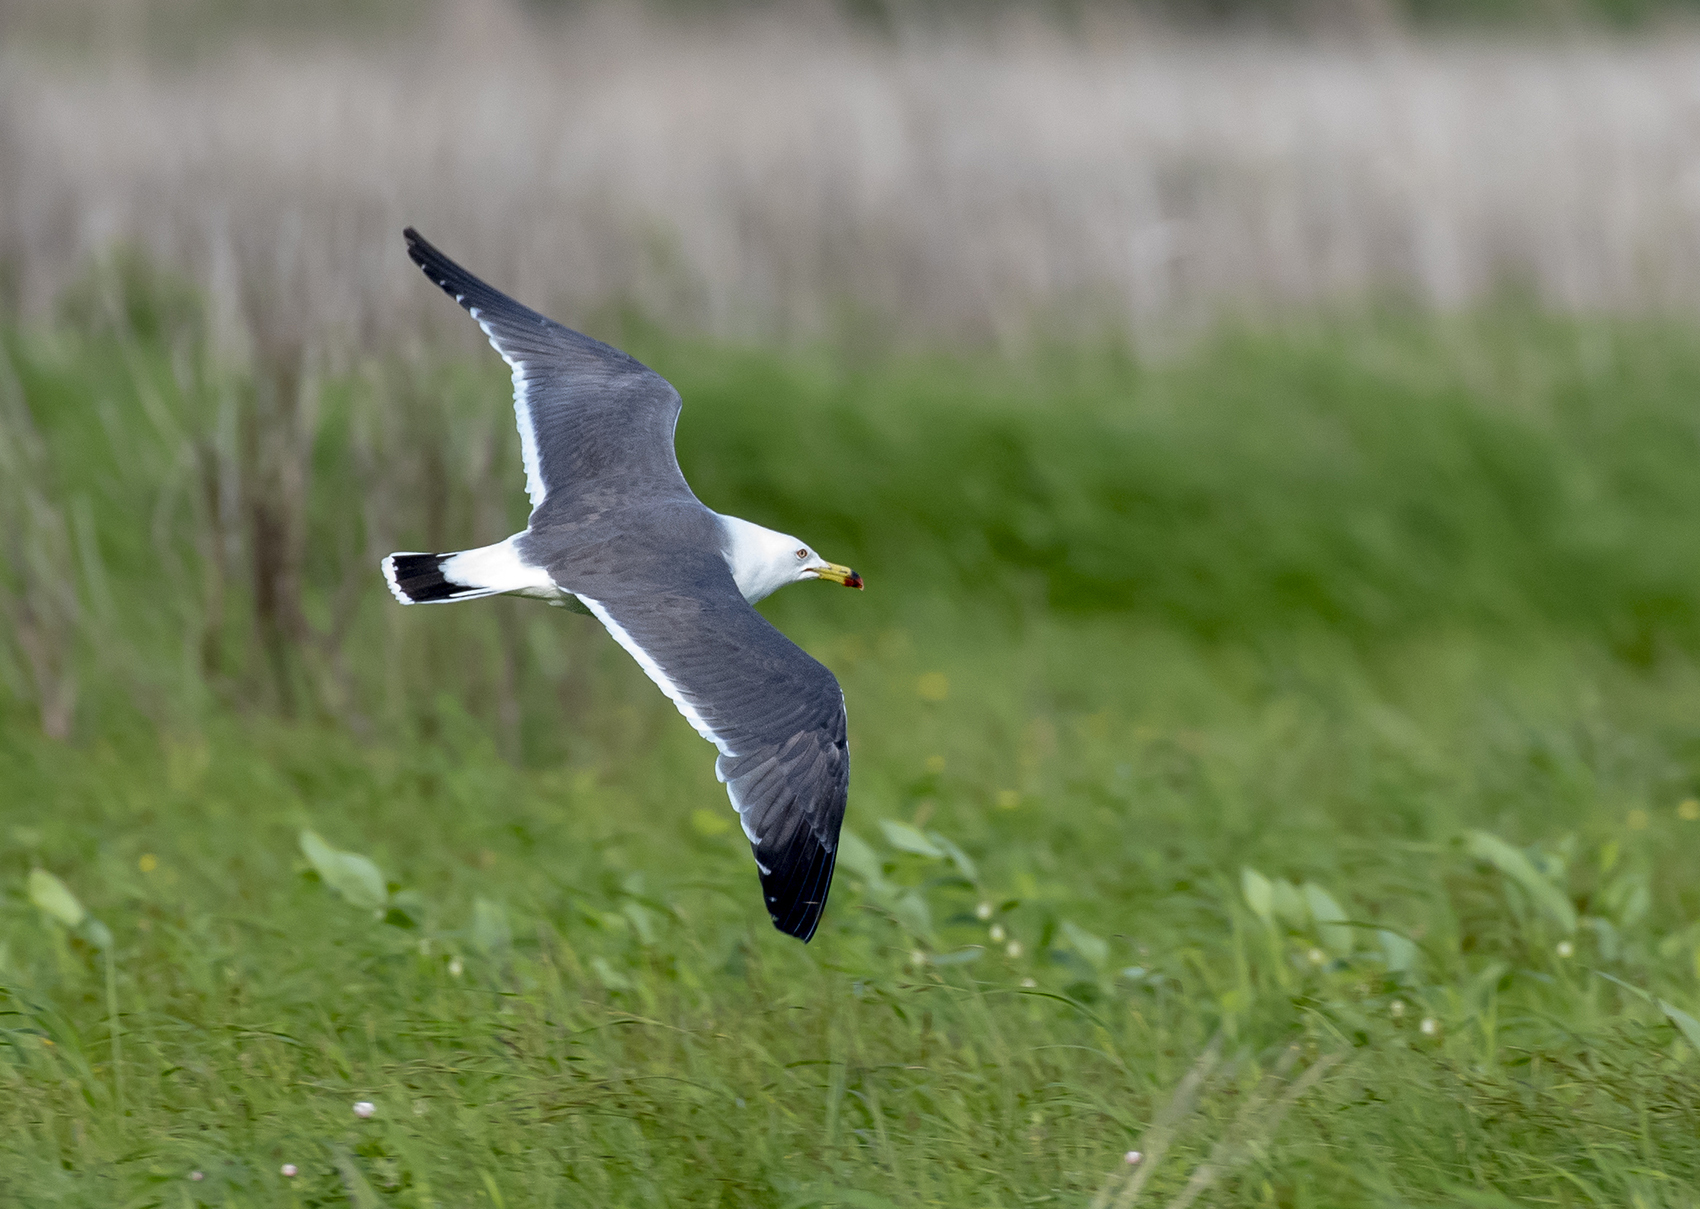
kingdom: Animalia
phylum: Chordata
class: Aves
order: Charadriiformes
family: Laridae
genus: Larus
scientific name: Larus crassirostris
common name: Black-tailed gull
